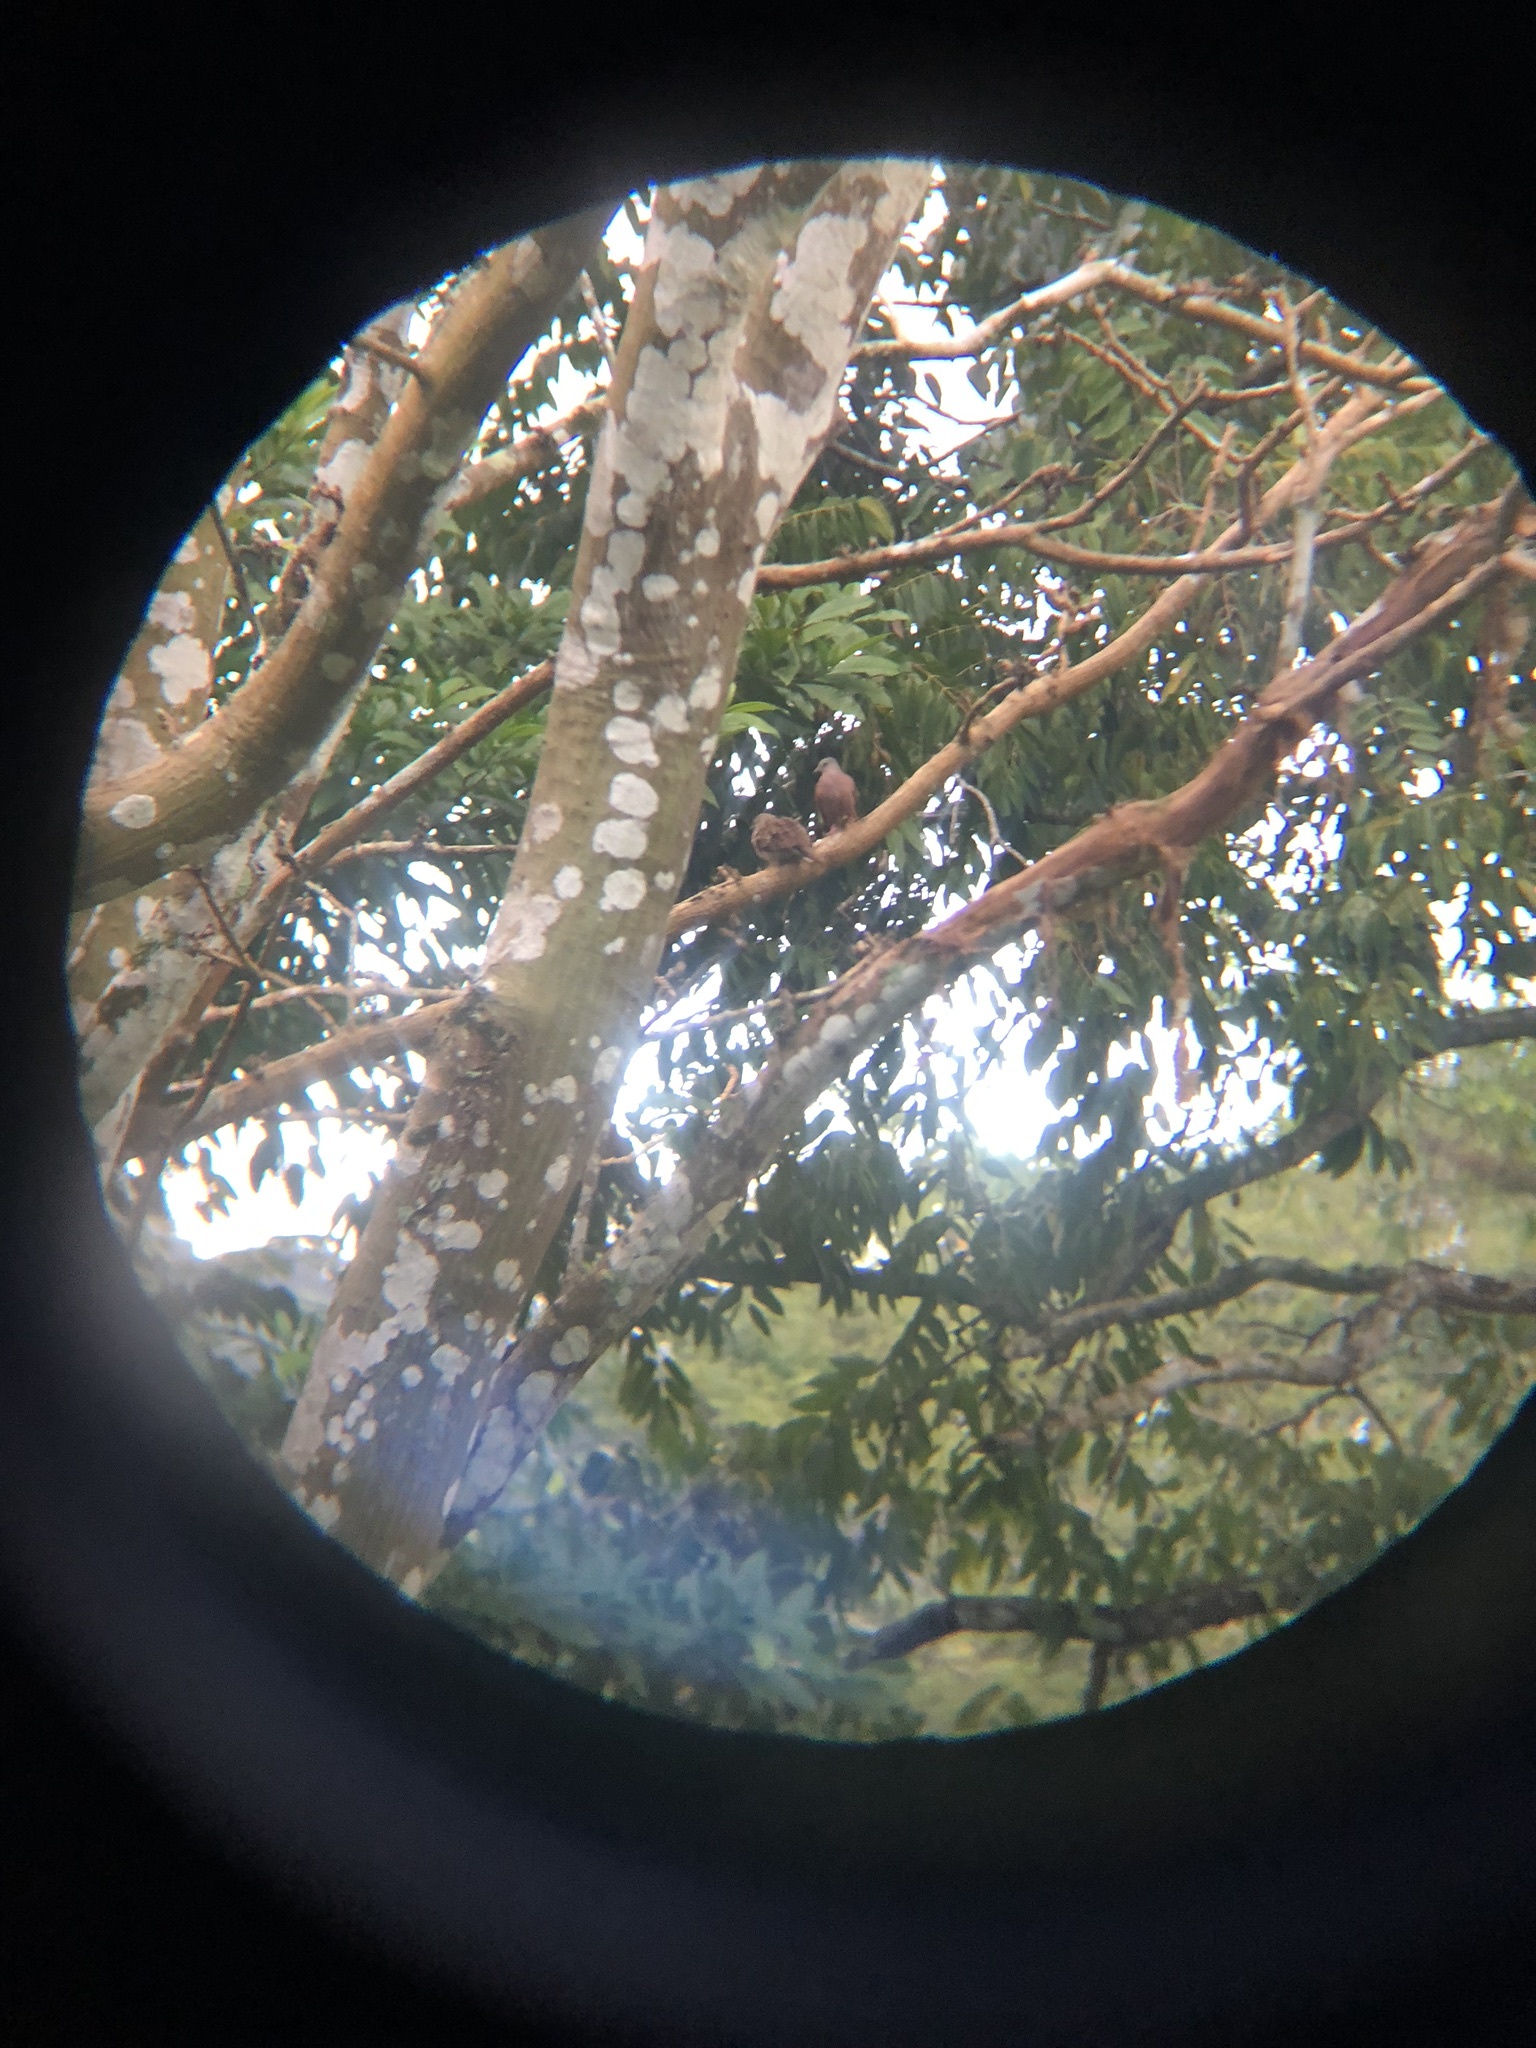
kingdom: Animalia
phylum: Chordata
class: Aves
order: Columbiformes
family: Columbidae
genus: Columbina
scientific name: Columbina talpacoti
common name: Ruddy ground dove
